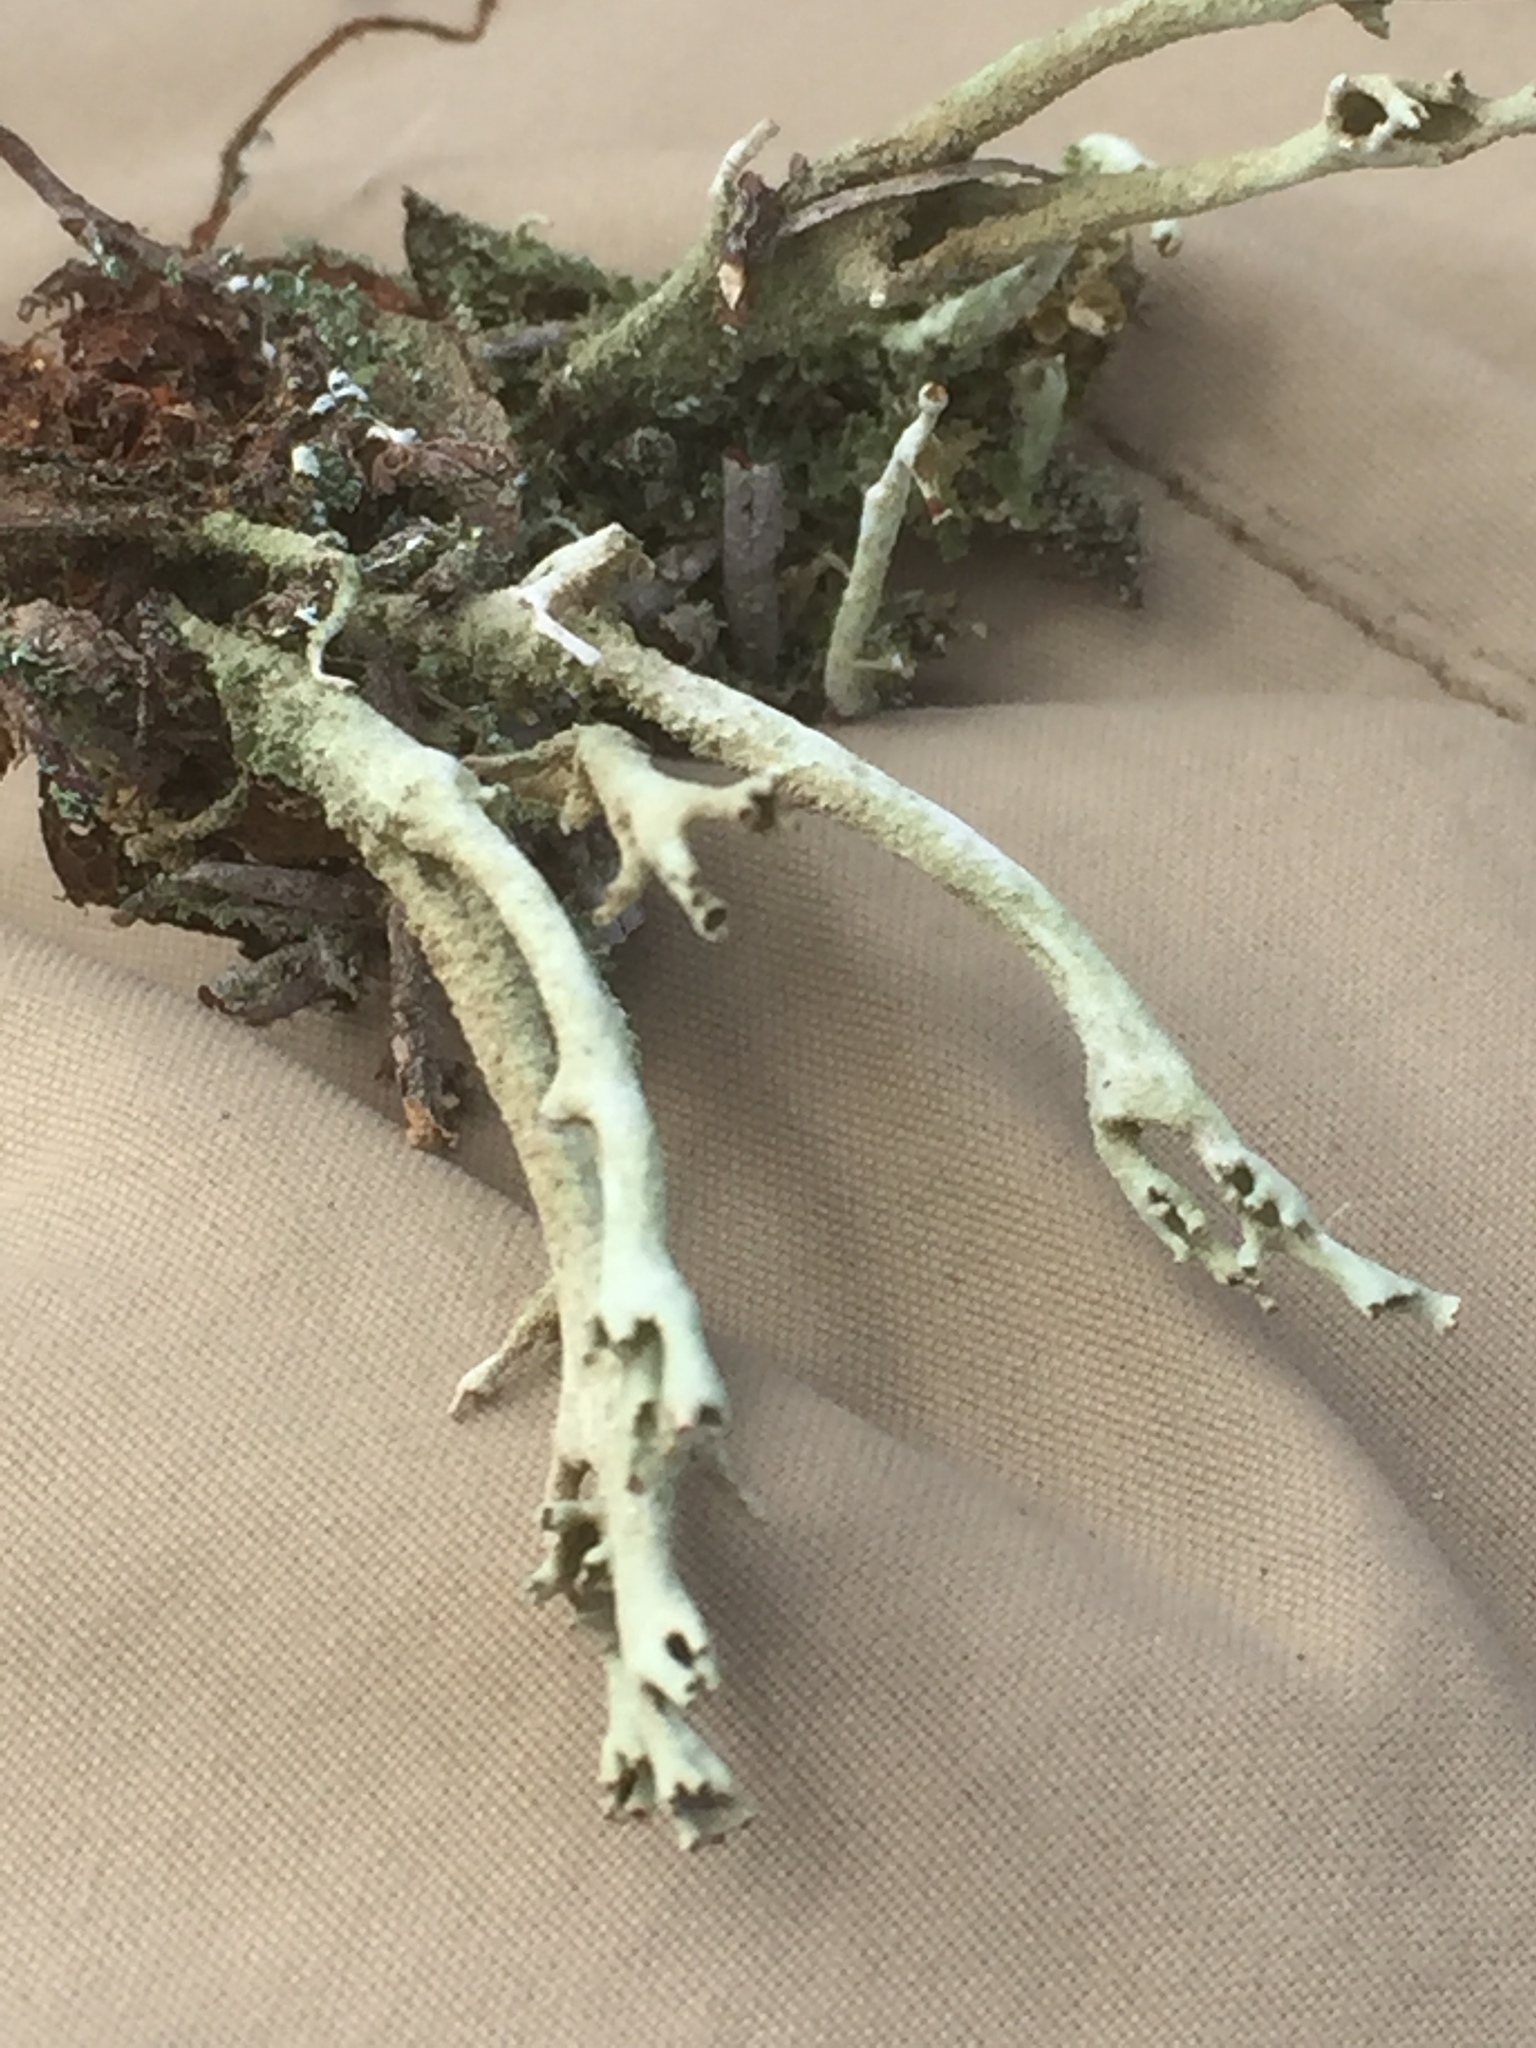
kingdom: Fungi
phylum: Ascomycota
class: Lecanoromycetes
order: Lecanorales
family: Cladoniaceae
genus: Cladonia
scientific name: Cladonia cenotea
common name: Powdered funnel lichen
